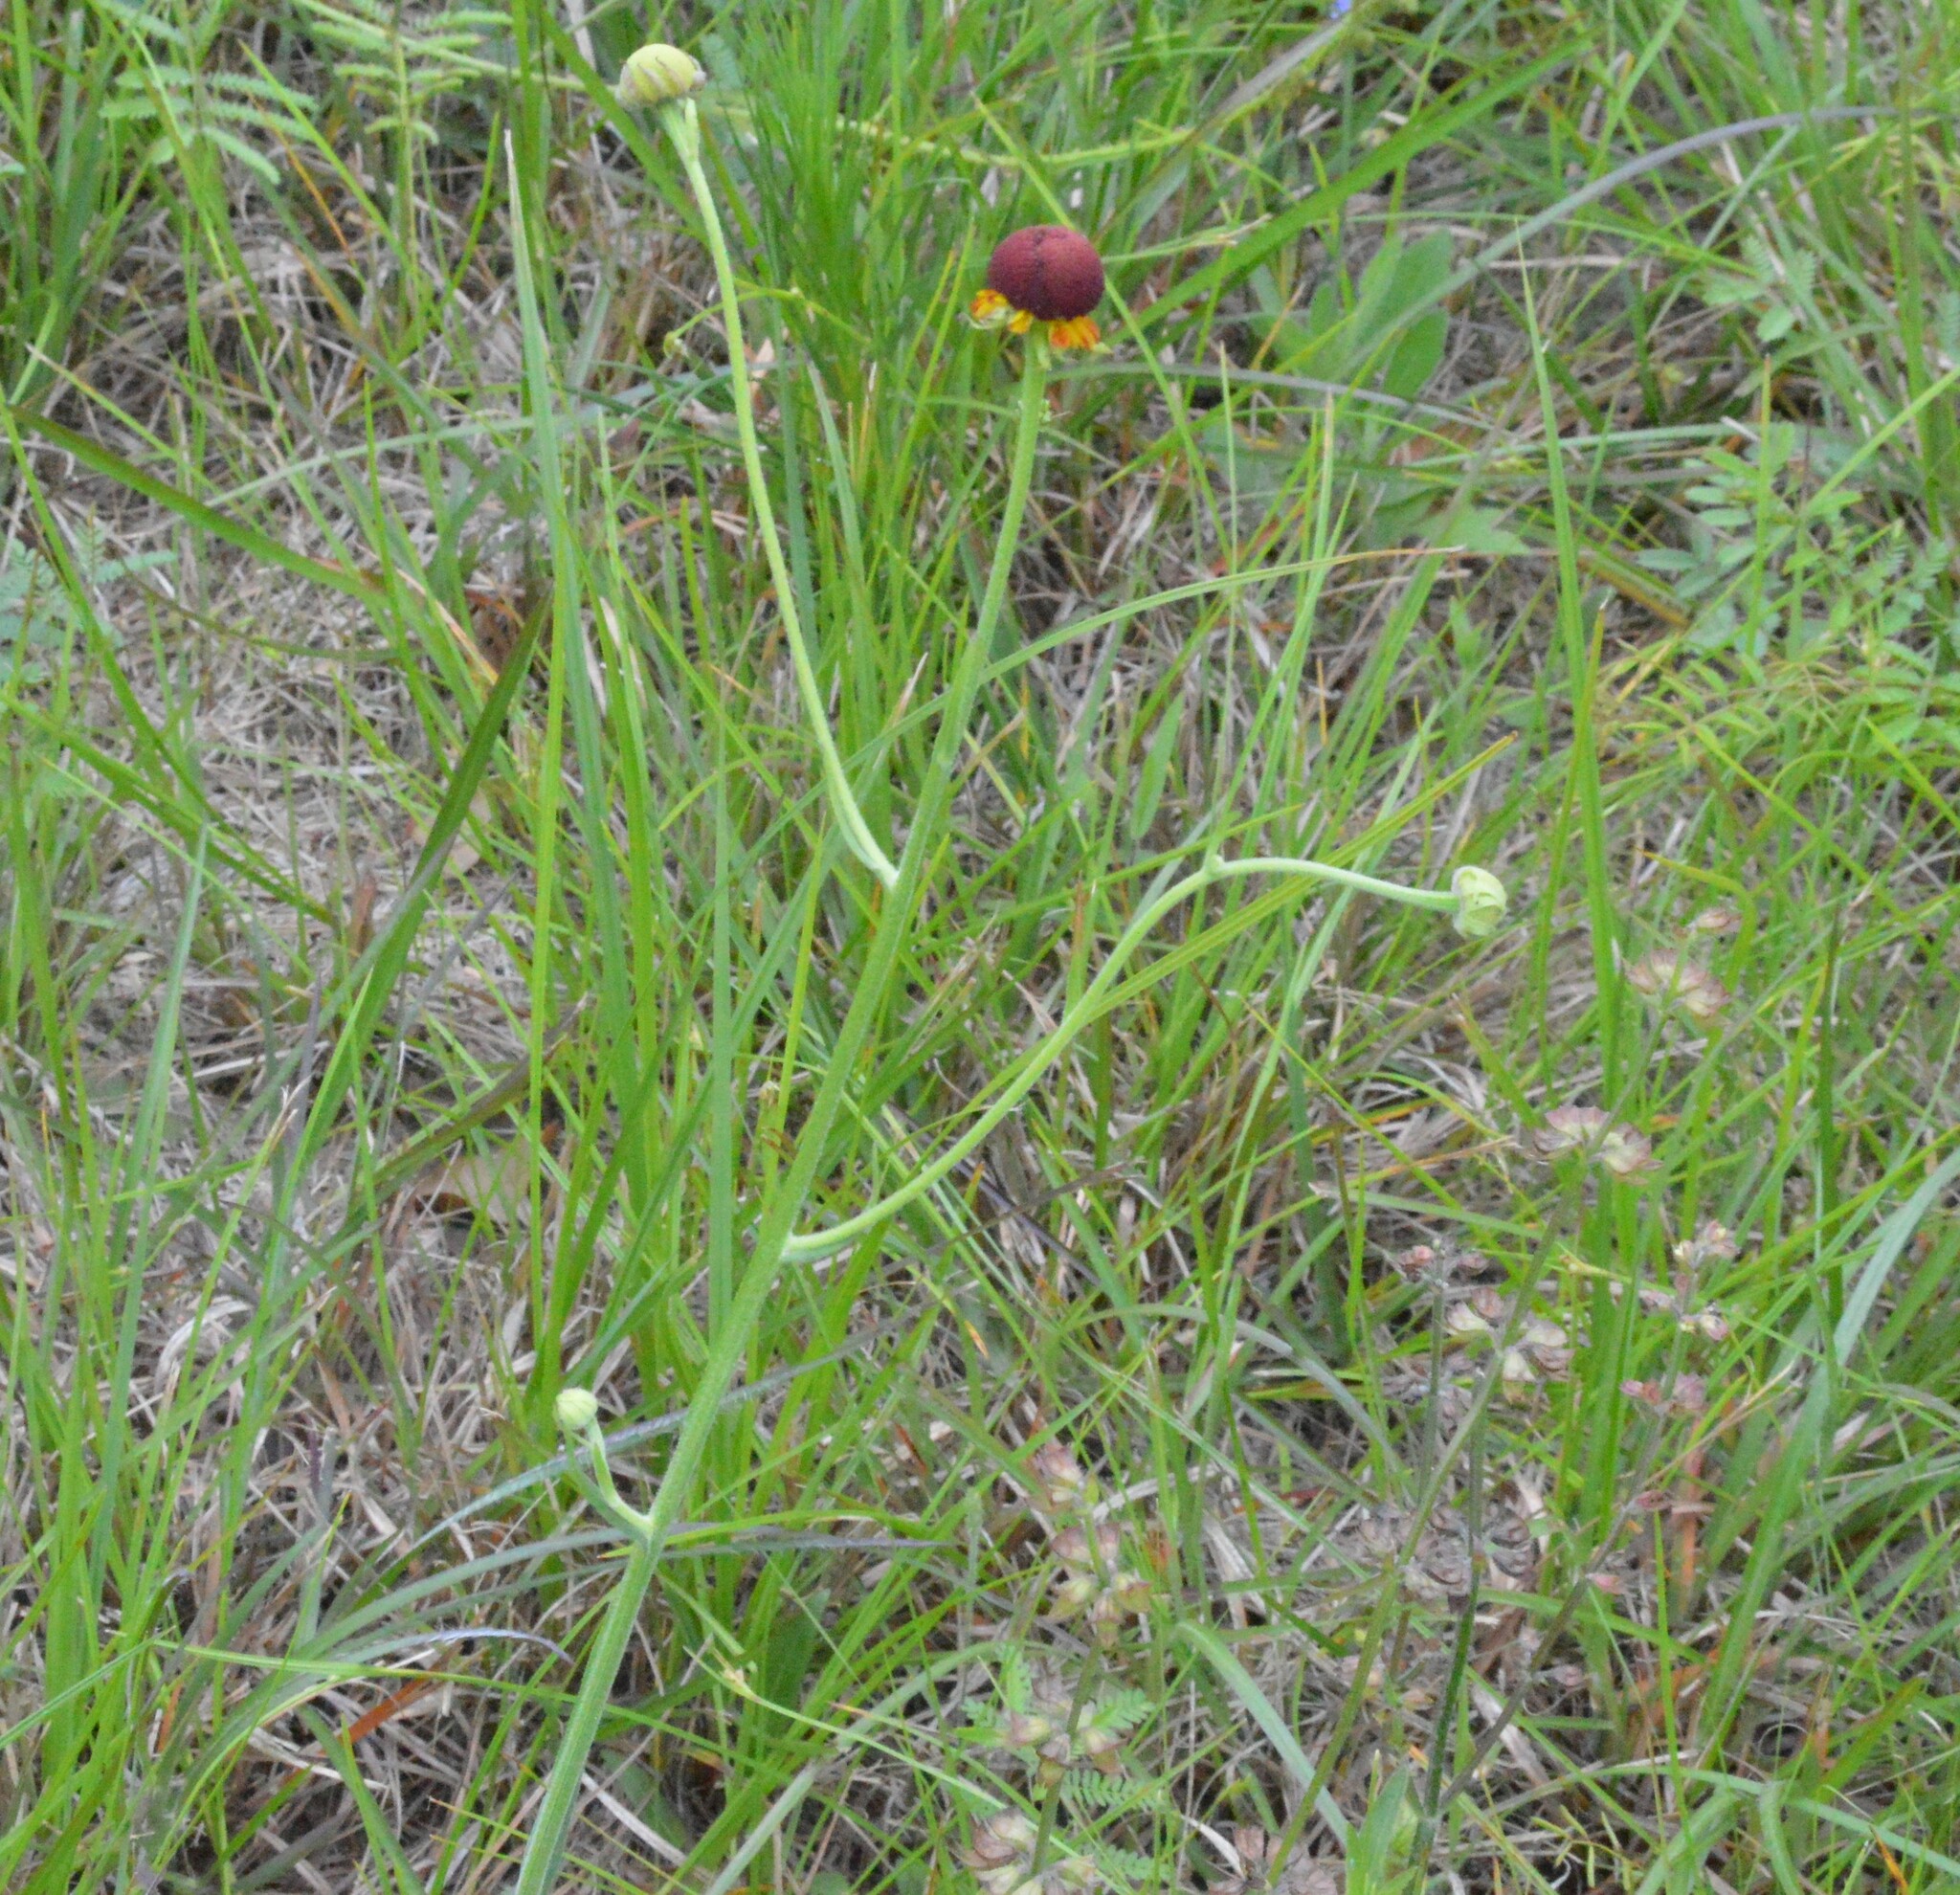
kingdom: Plantae
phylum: Tracheophyta
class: Magnoliopsida
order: Asterales
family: Asteraceae
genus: Helenium
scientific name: Helenium flexuosum
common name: Naked-flowered sneezeweed
